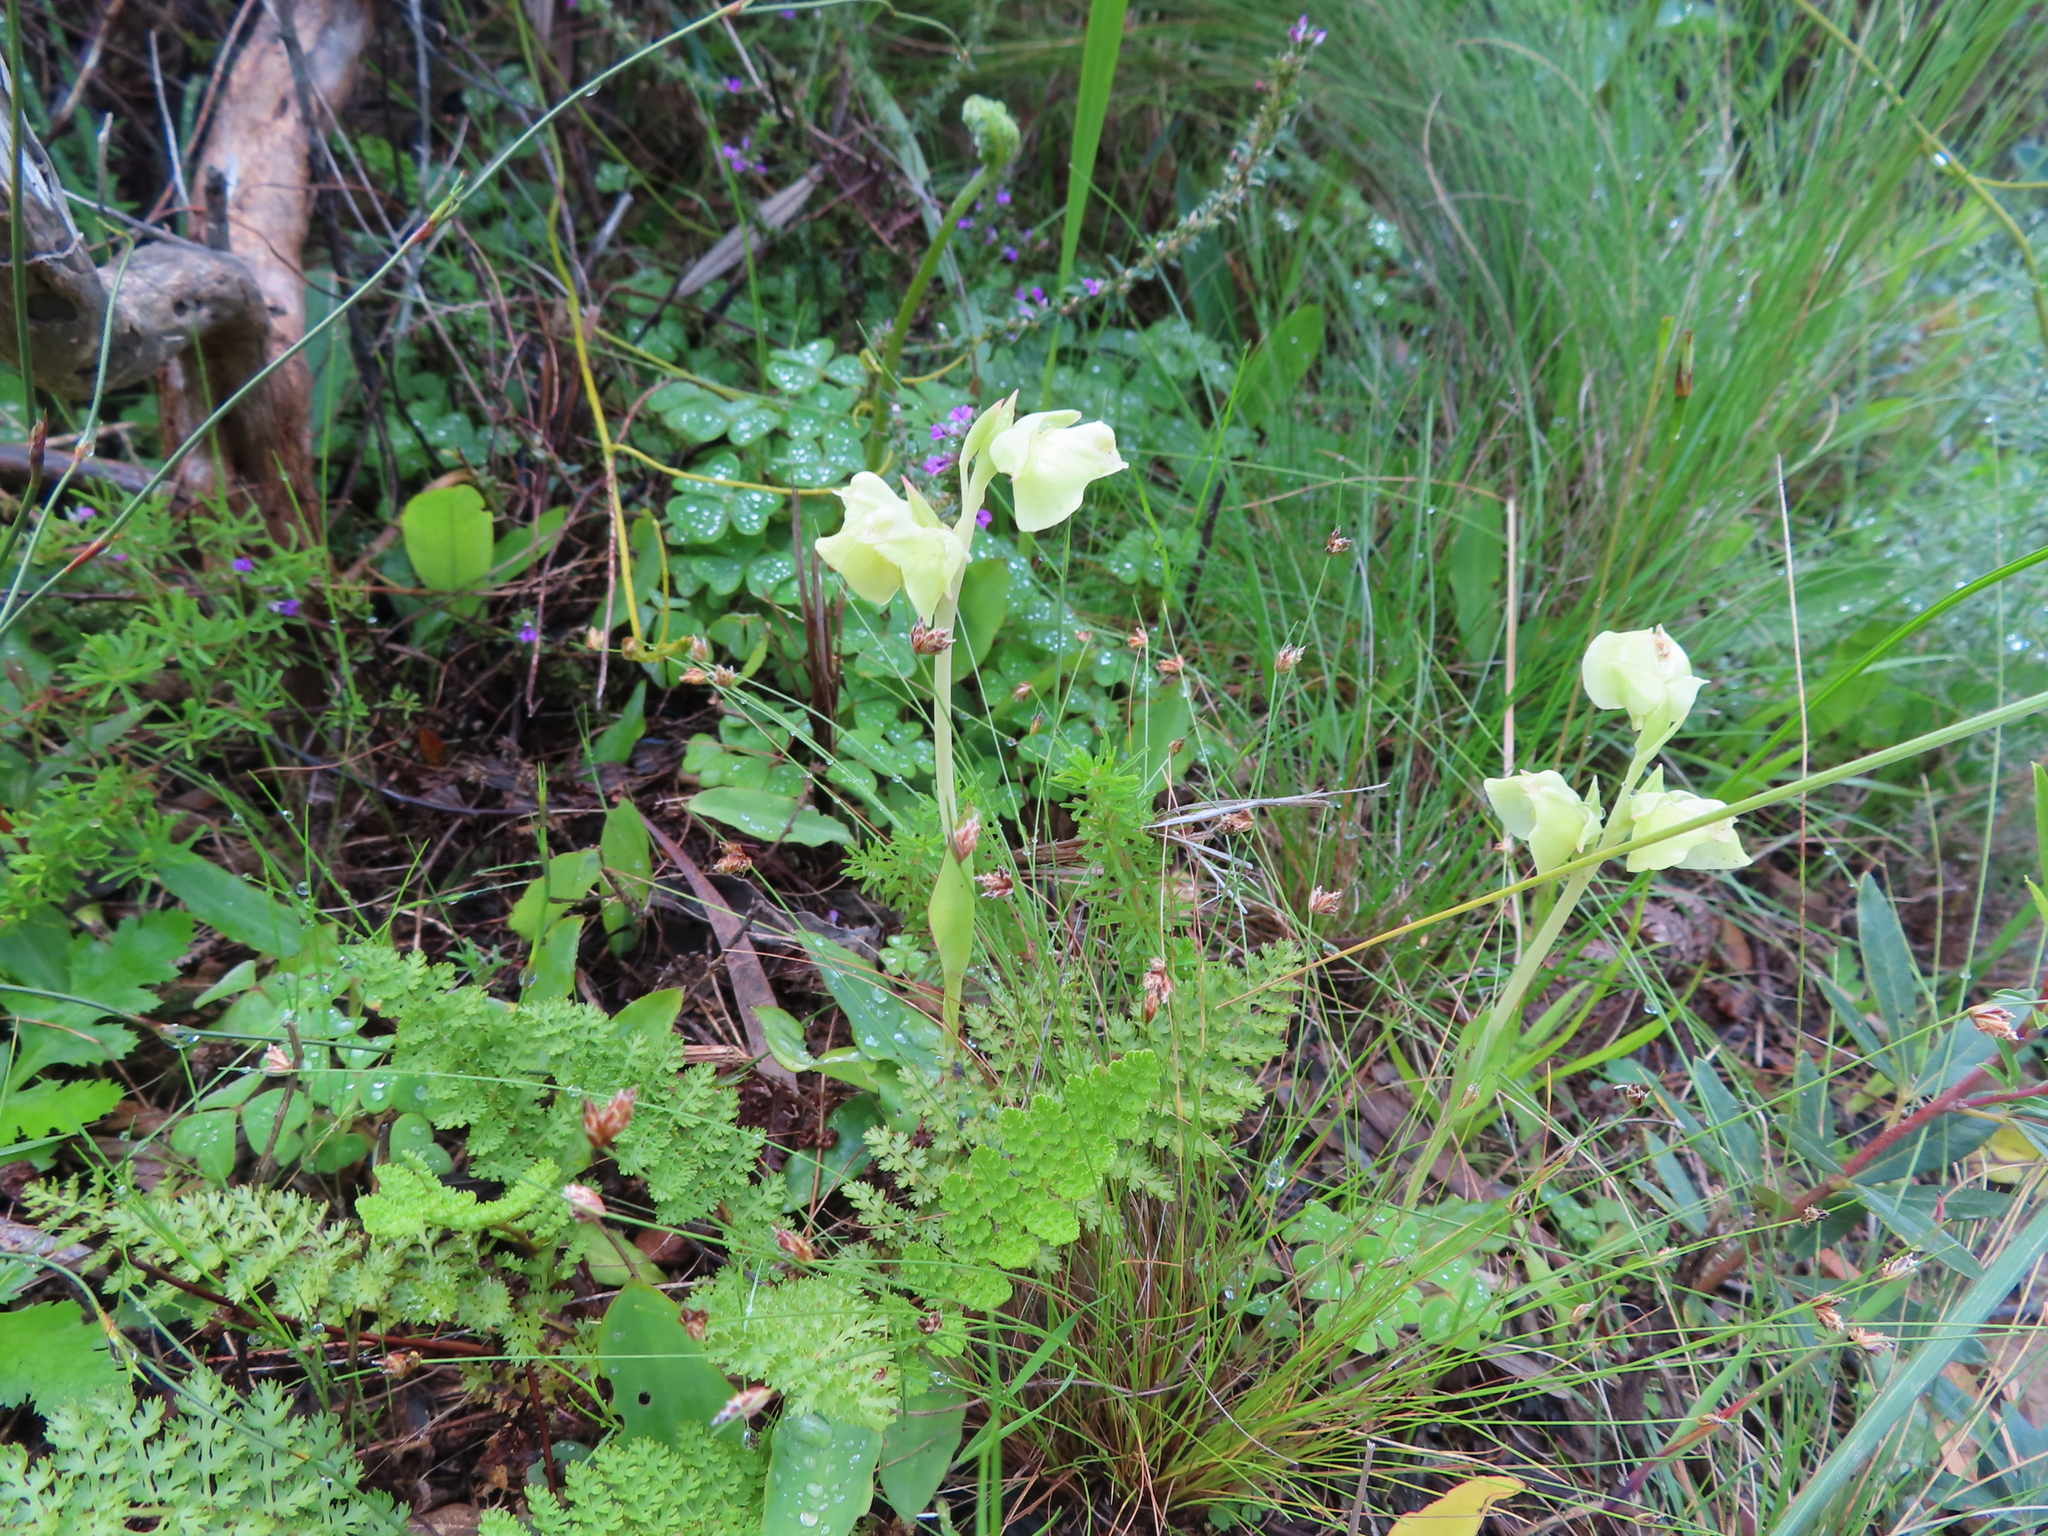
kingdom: Plantae
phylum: Tracheophyta
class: Liliopsida
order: Asparagales
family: Orchidaceae
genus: Pterygodium
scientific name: Pterygodium catholicum
